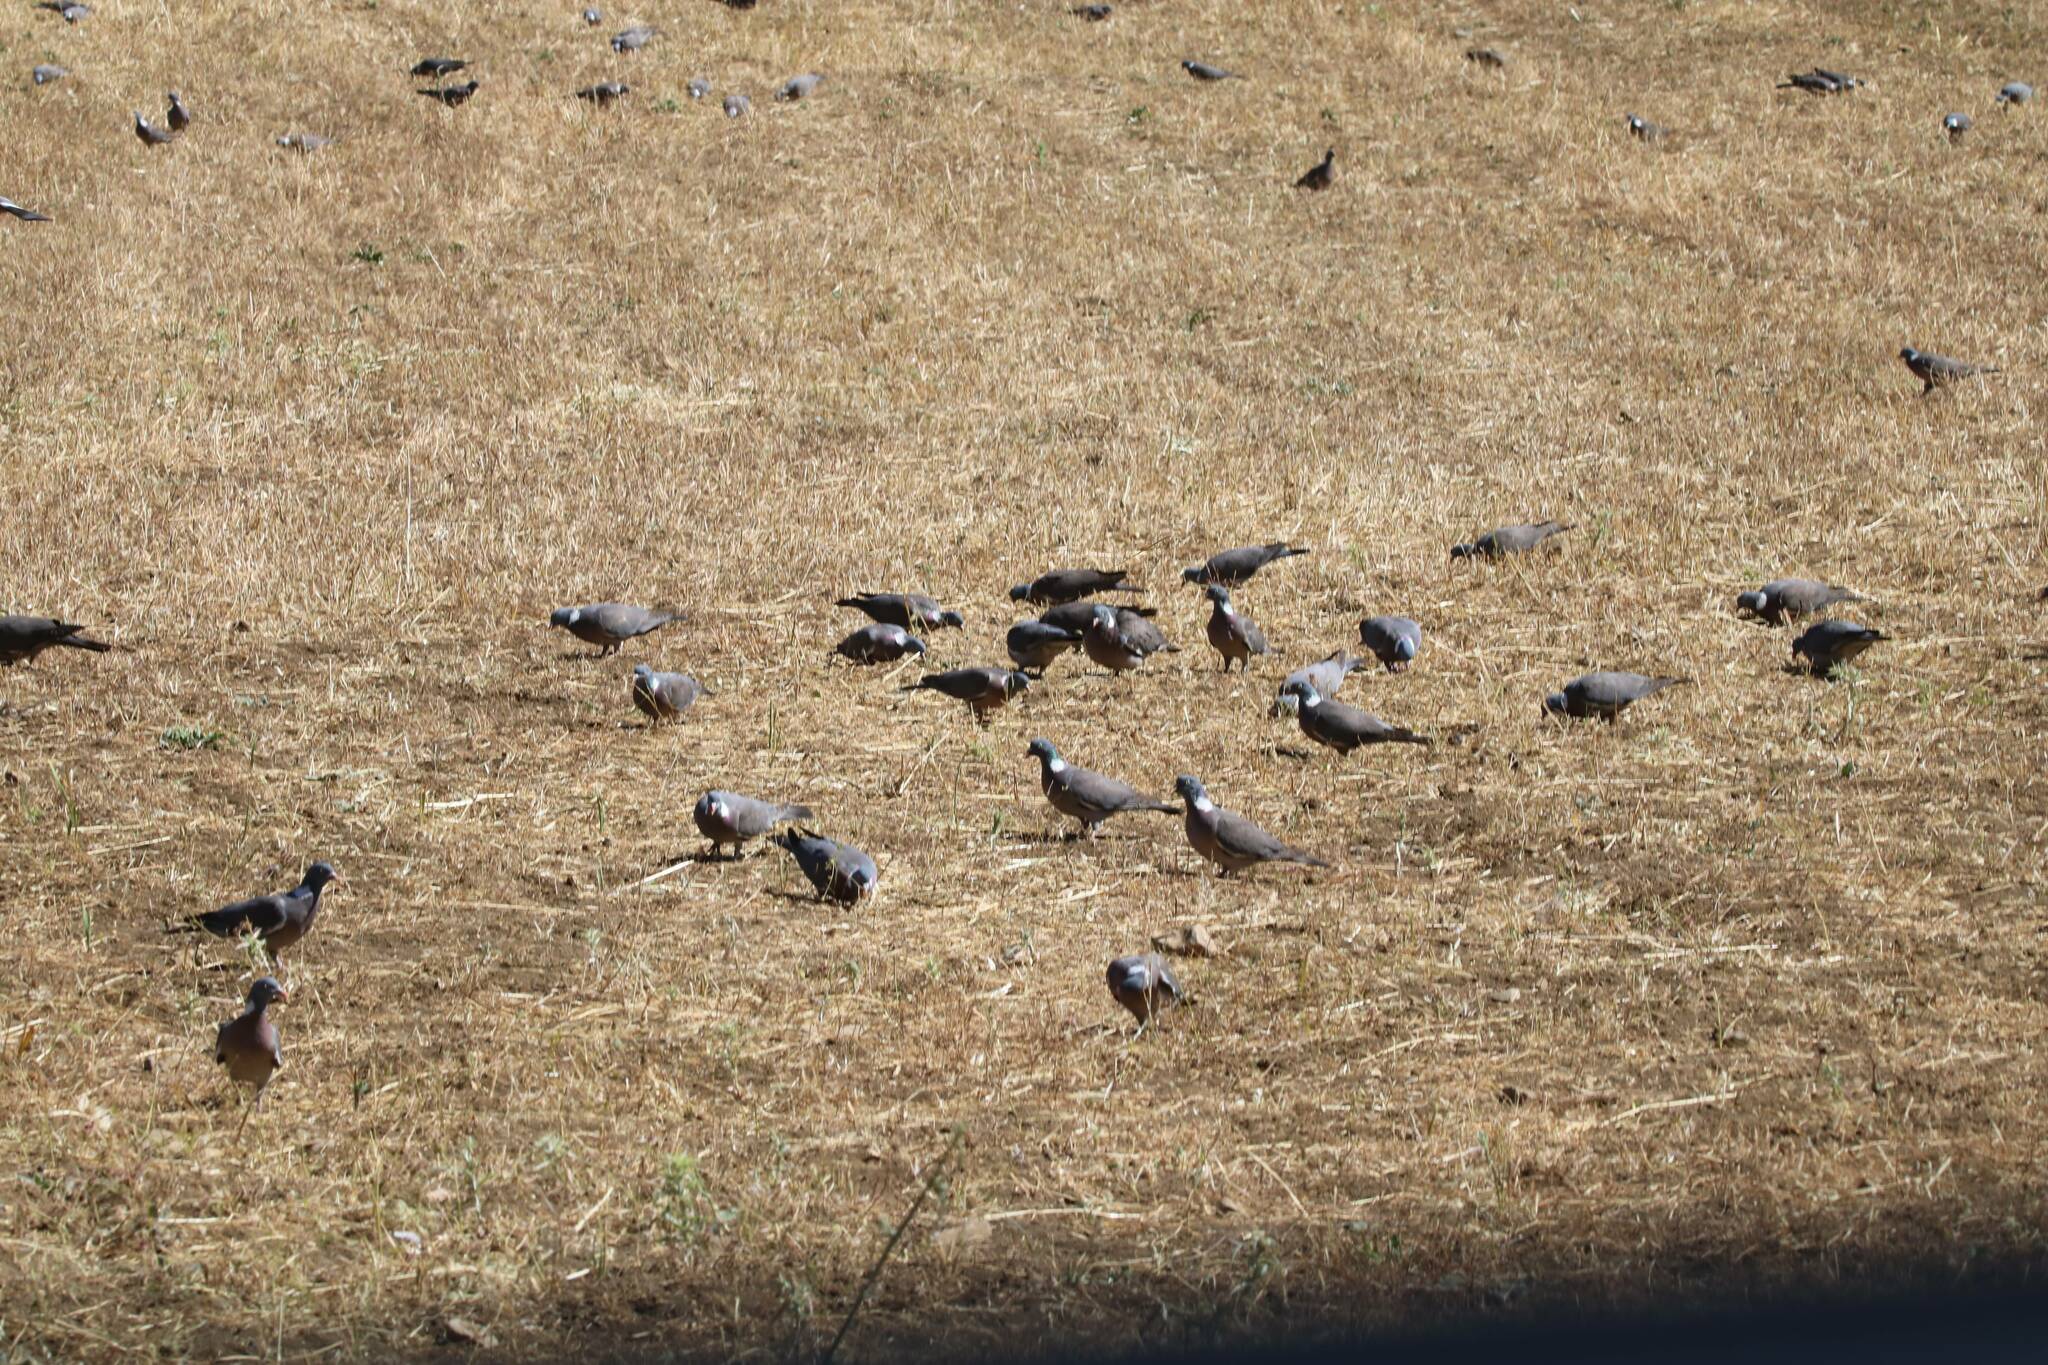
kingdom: Animalia
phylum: Chordata
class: Aves
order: Columbiformes
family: Columbidae
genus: Columba
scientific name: Columba palumbus
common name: Common wood pigeon
